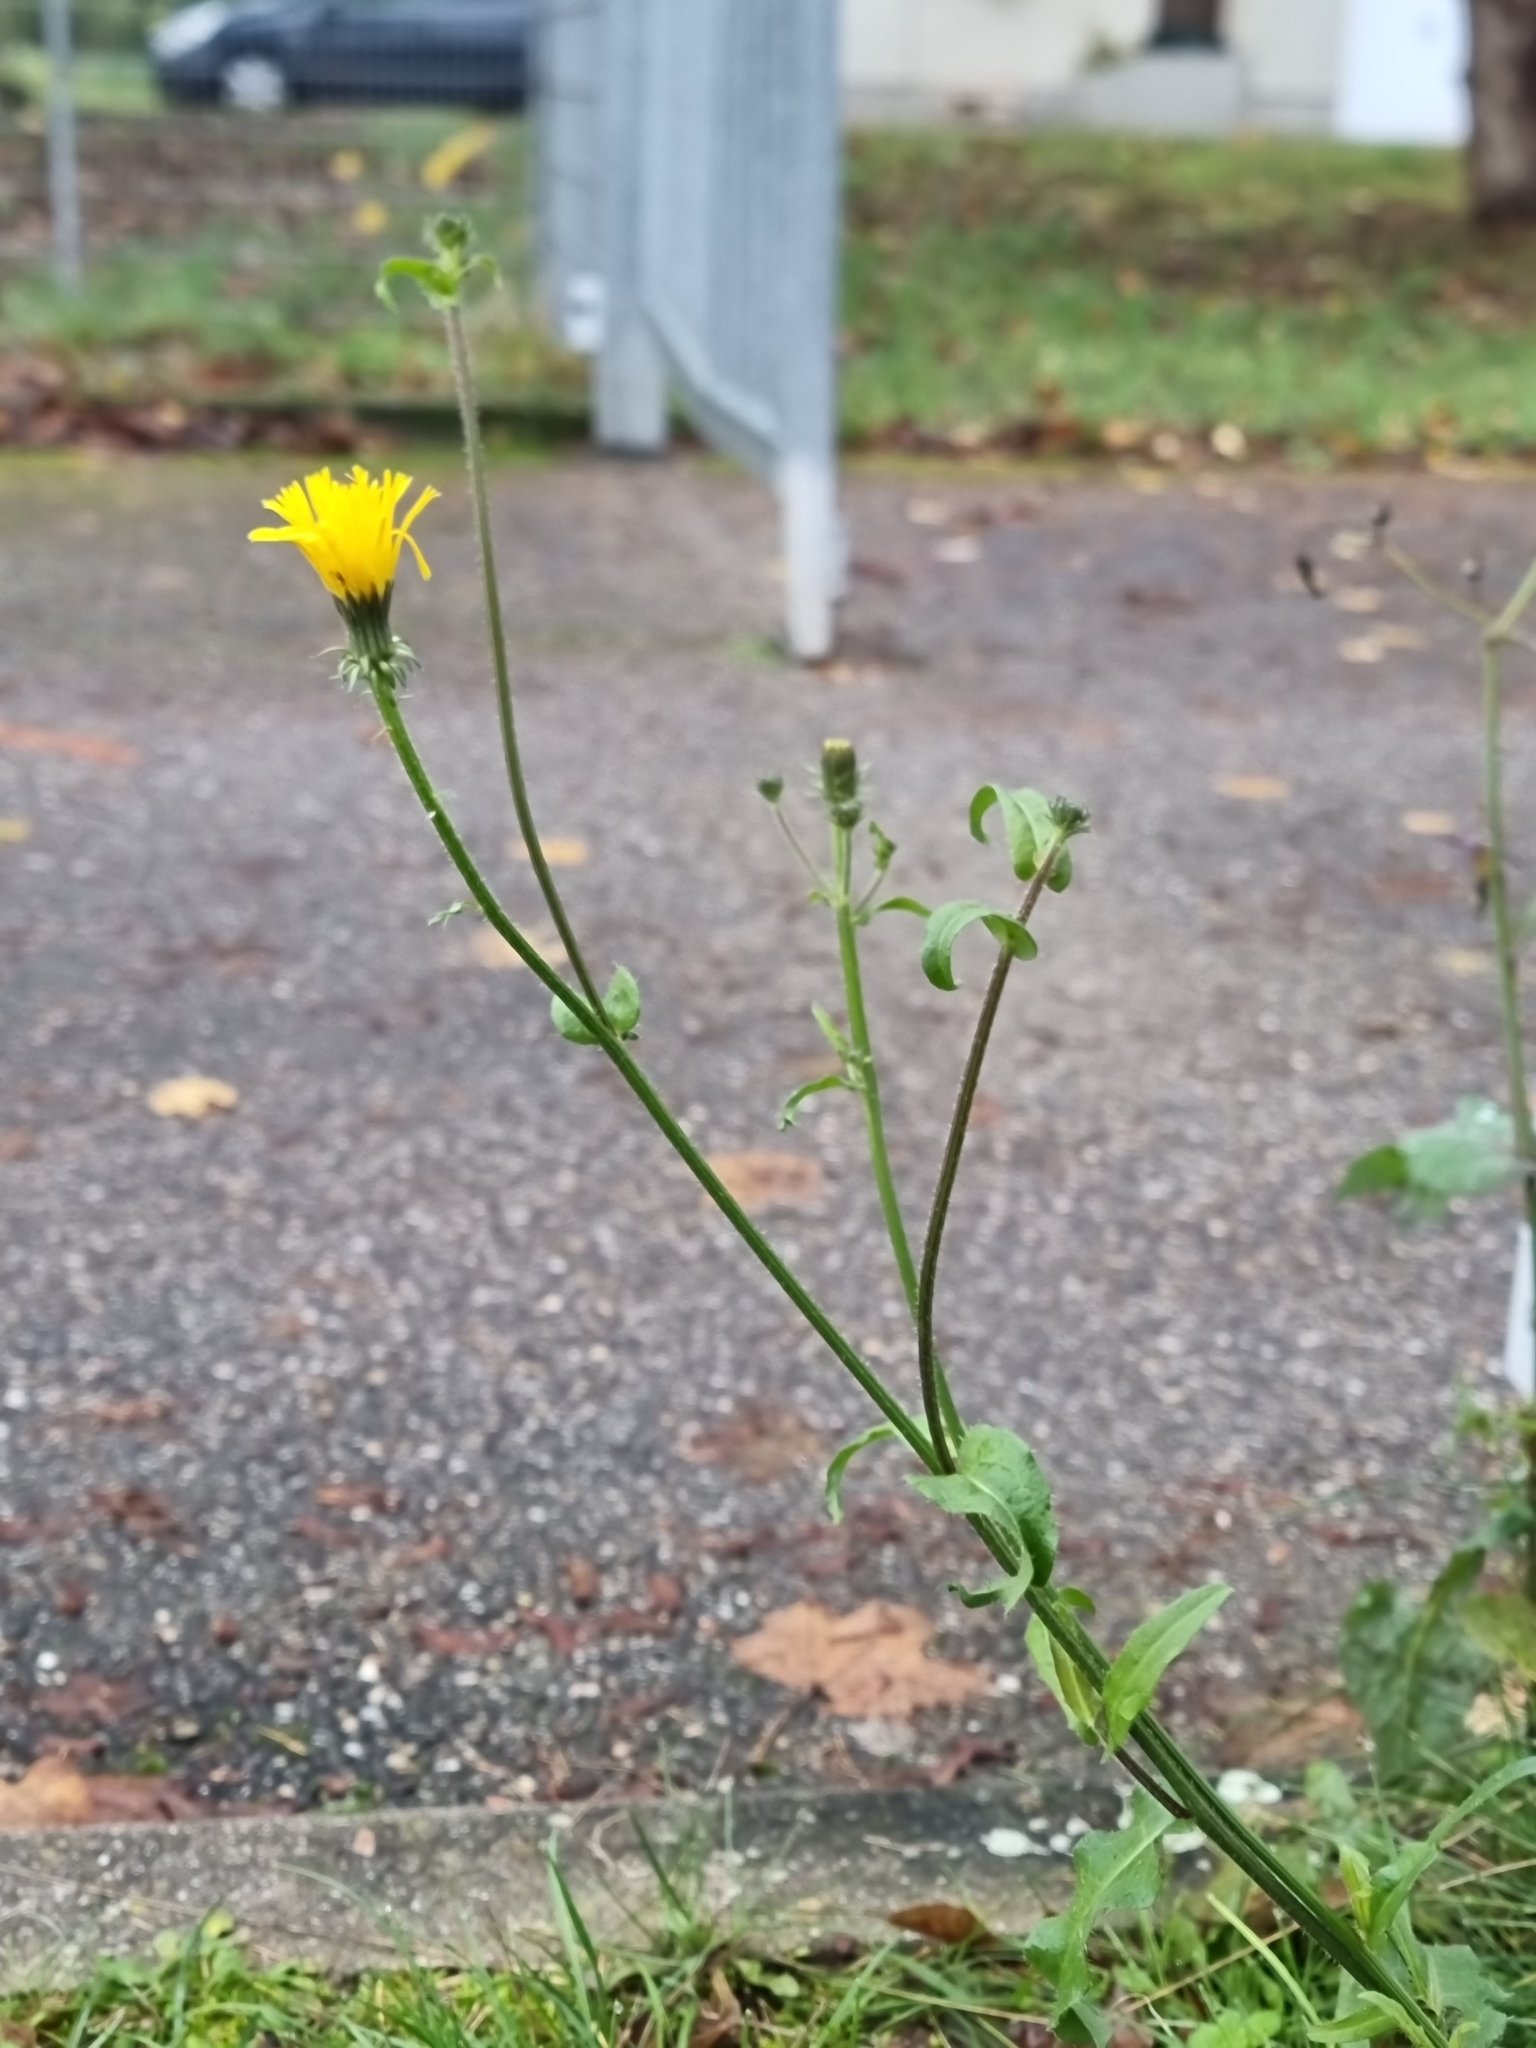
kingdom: Plantae
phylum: Tracheophyta
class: Magnoliopsida
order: Asterales
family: Asteraceae
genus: Picris
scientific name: Picris hieracioides
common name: Hawkweed oxtongue
